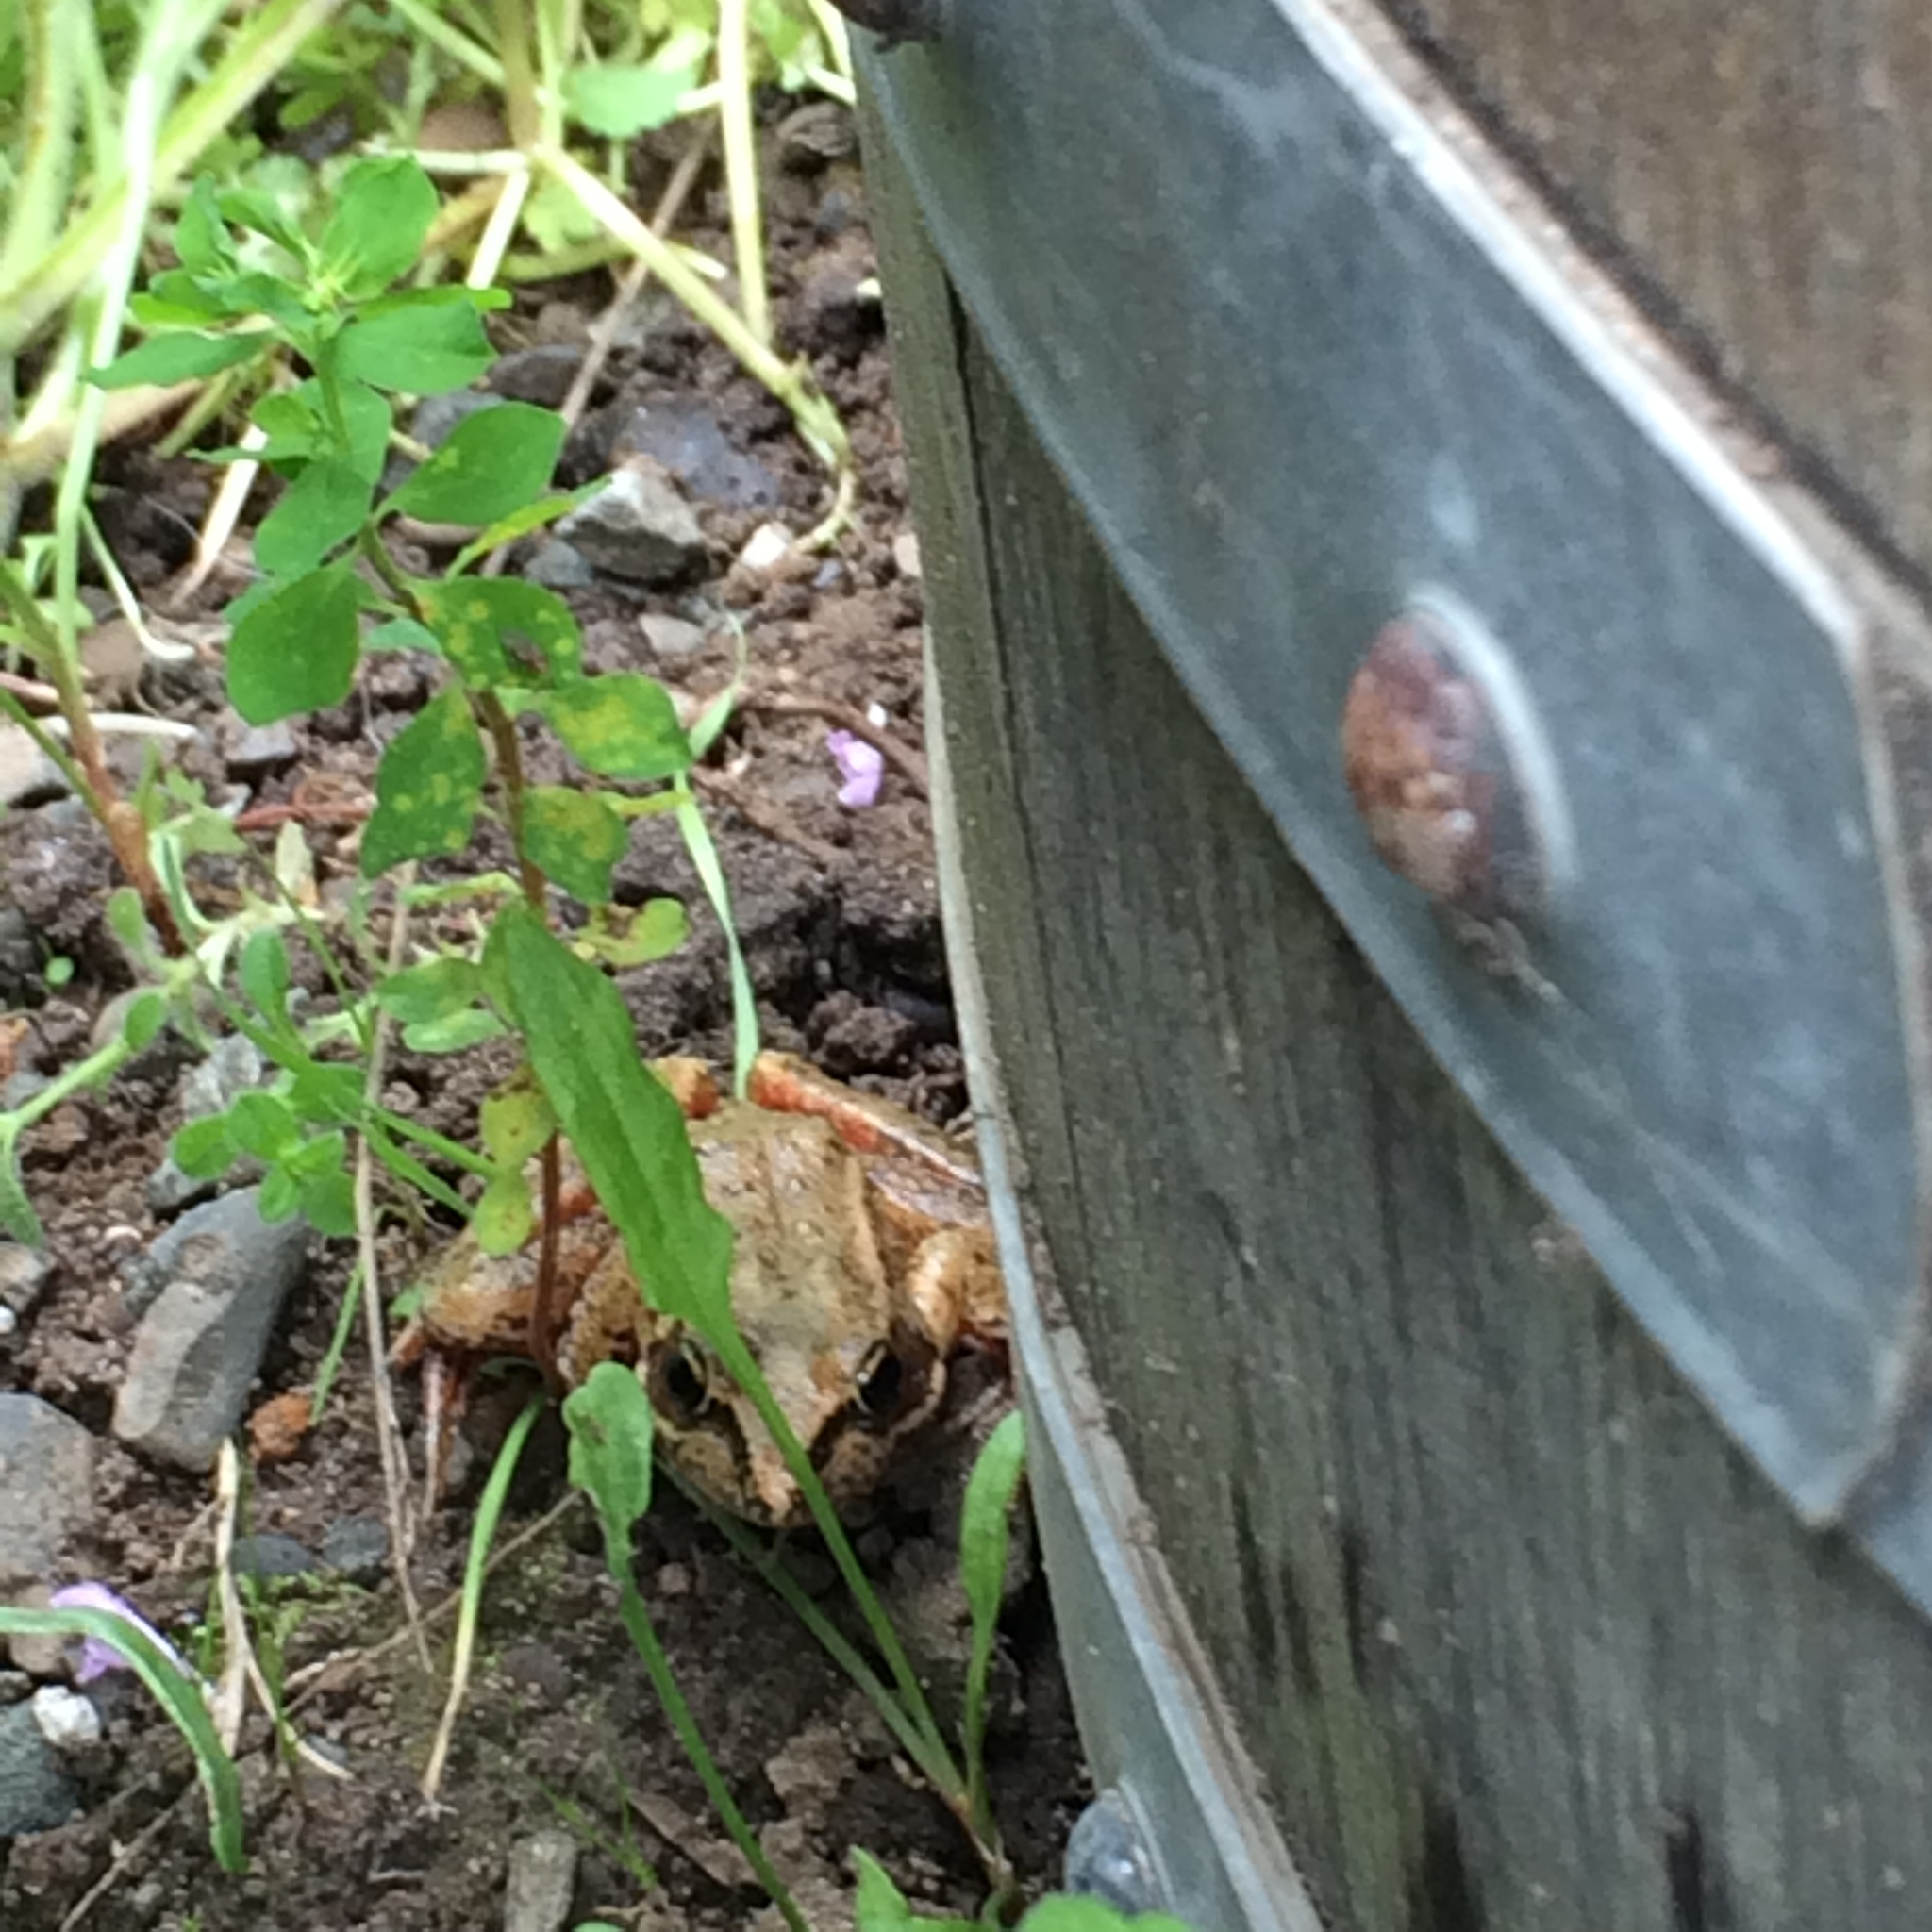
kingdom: Animalia
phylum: Chordata
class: Amphibia
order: Anura
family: Ranidae
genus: Rana
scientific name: Rana aurora
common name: Red-legged frog
